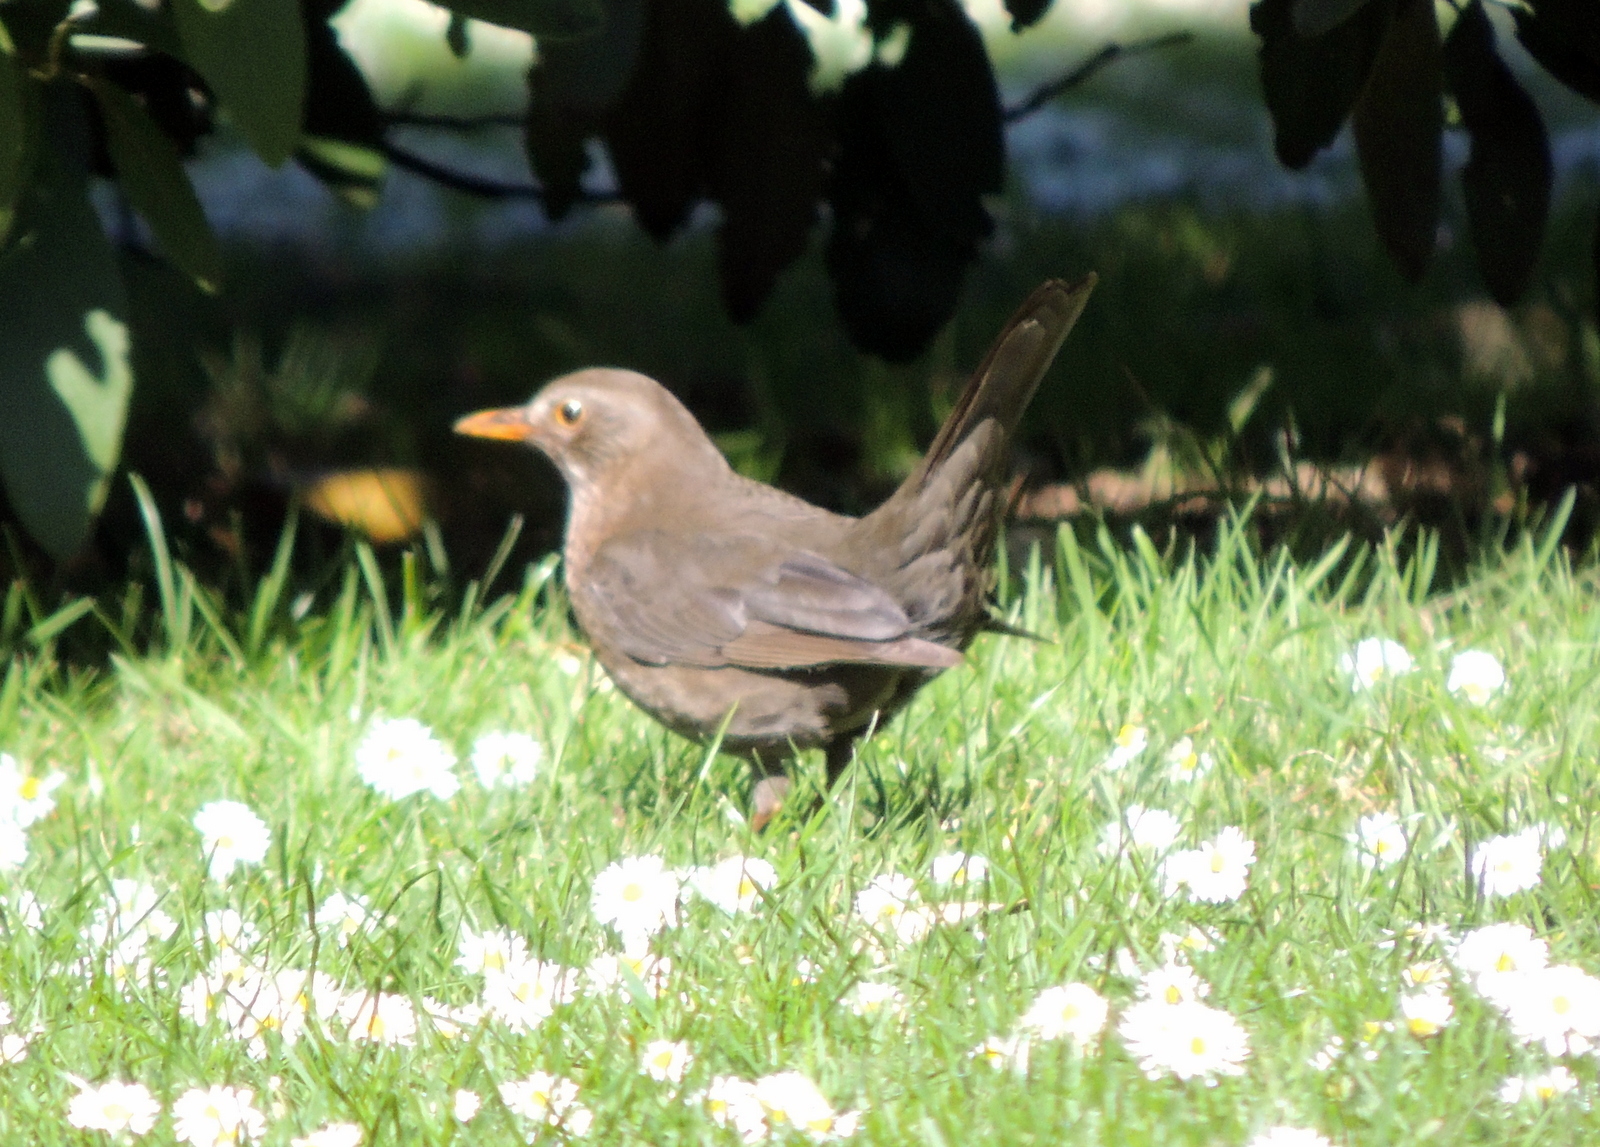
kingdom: Animalia
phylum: Chordata
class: Aves
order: Passeriformes
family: Turdidae
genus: Turdus
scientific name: Turdus merula
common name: Common blackbird
